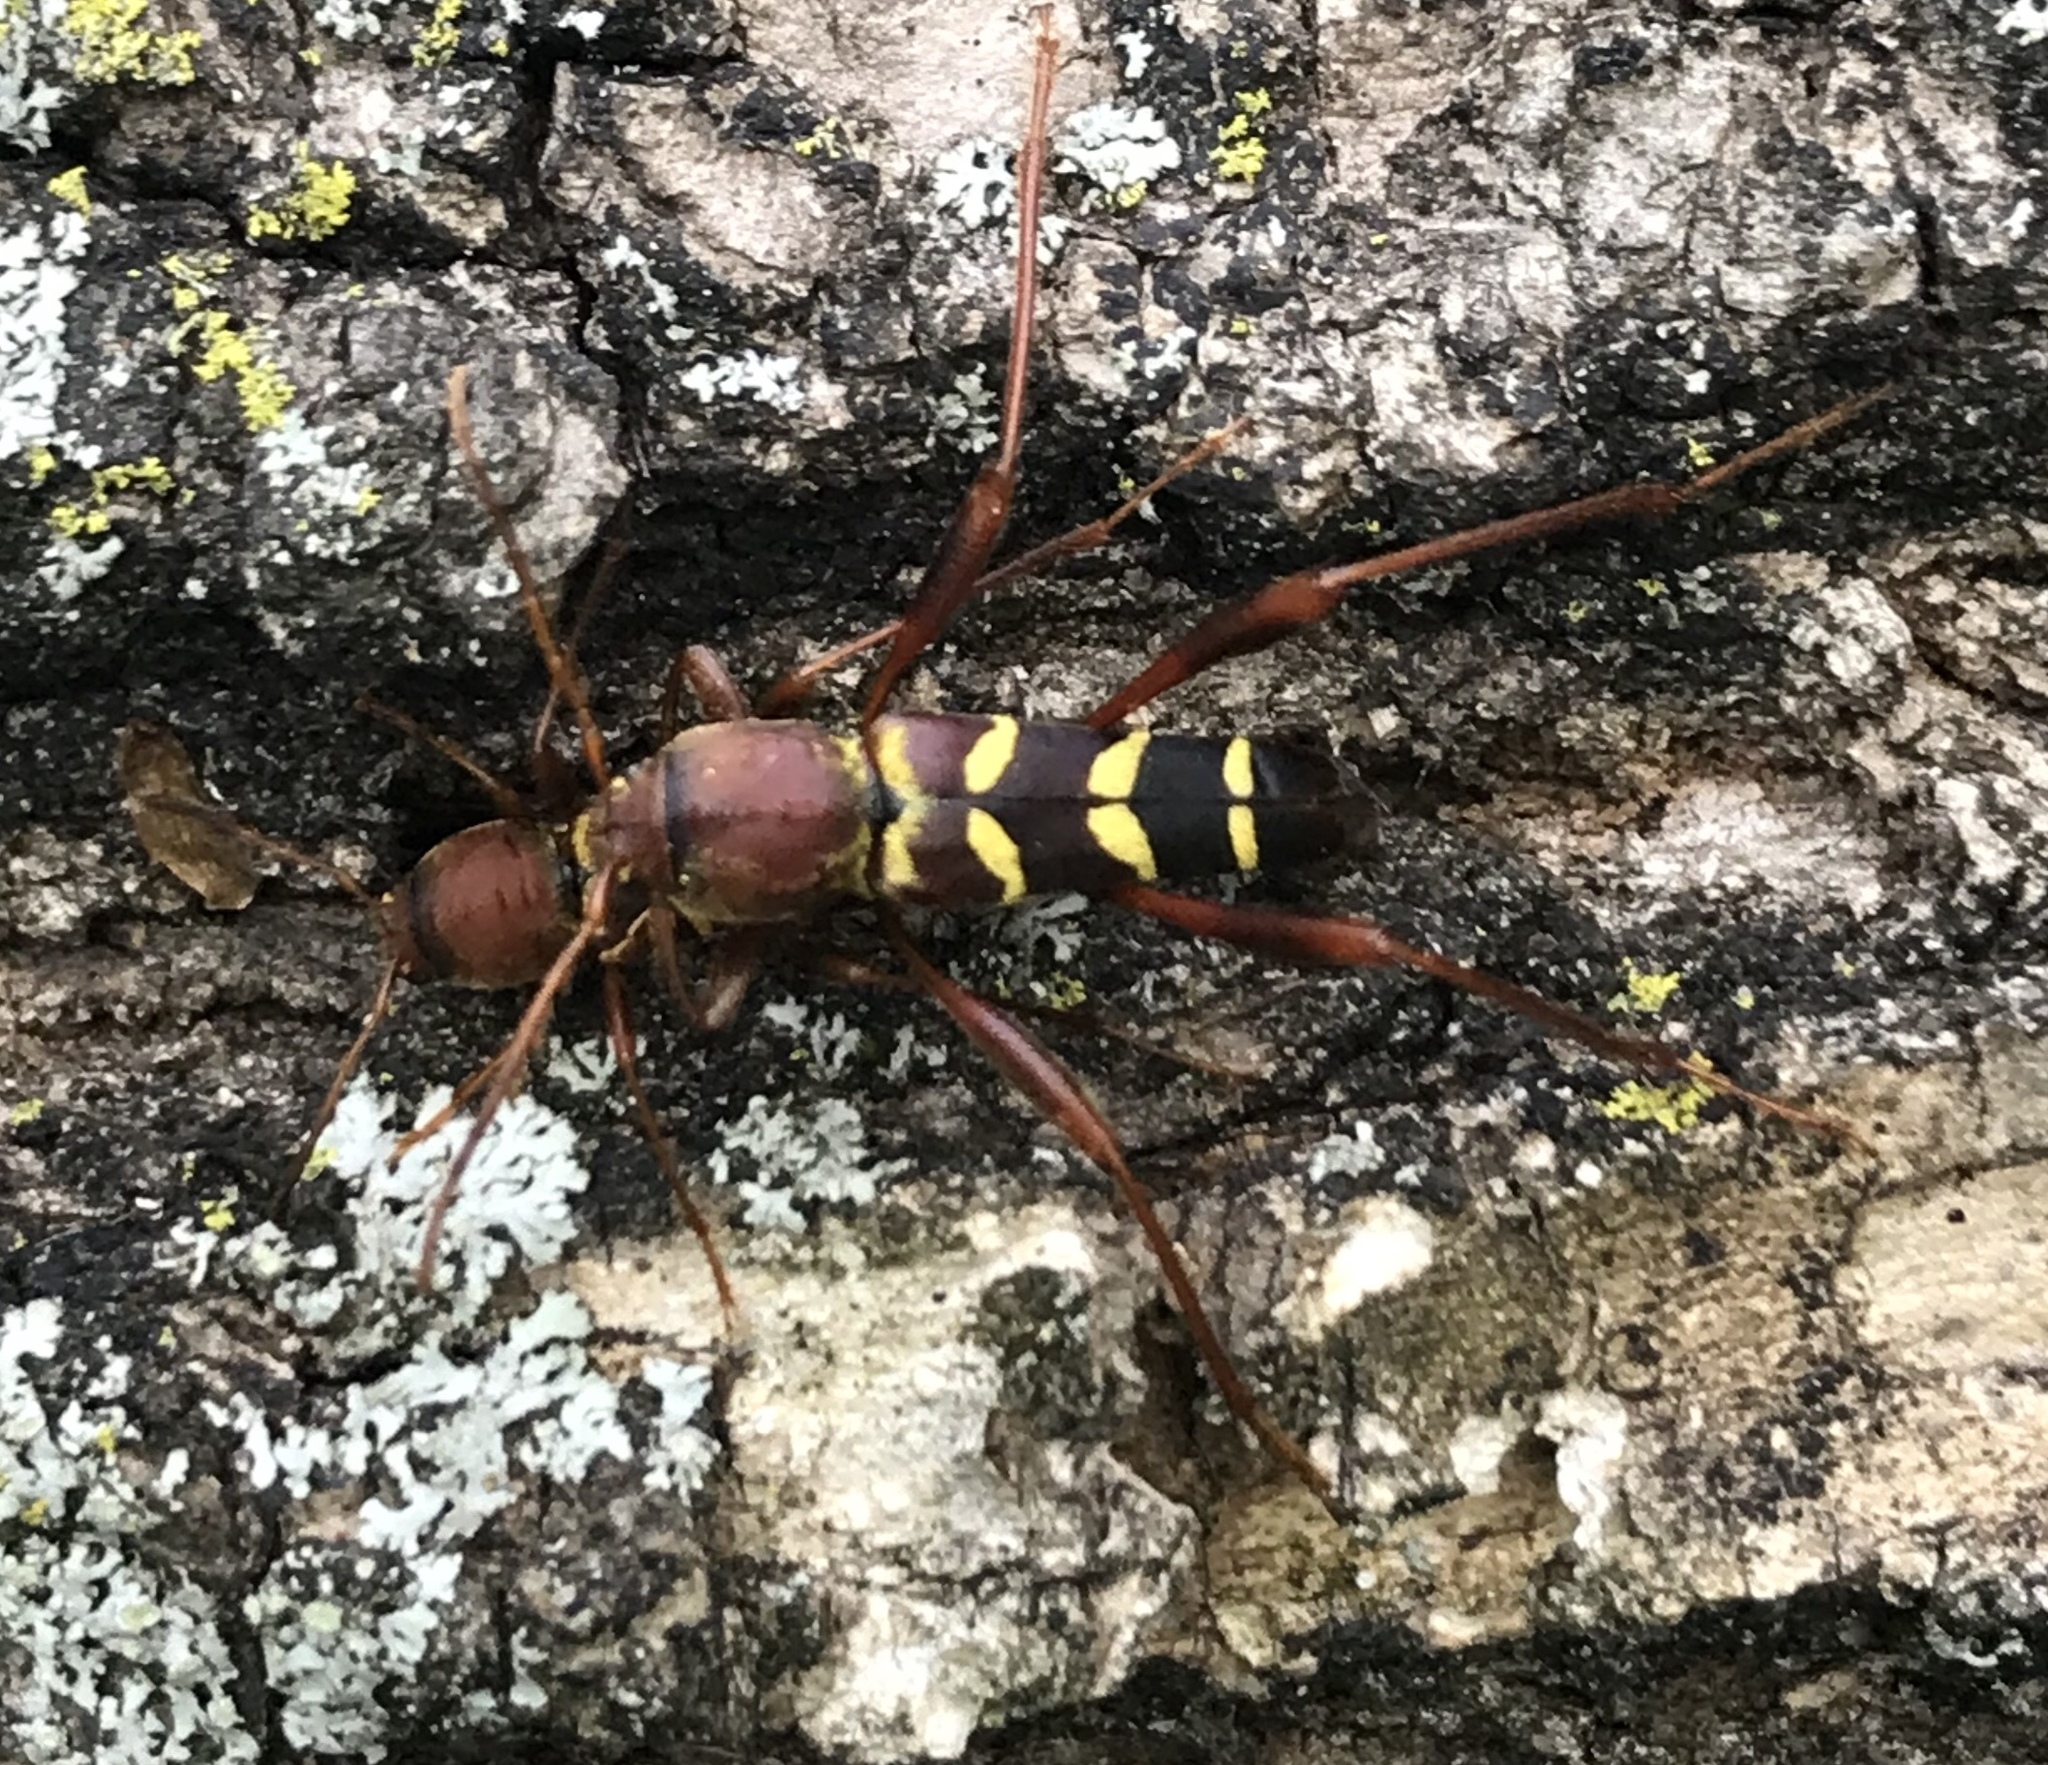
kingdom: Animalia
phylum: Arthropoda
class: Insecta
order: Coleoptera
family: Cerambycidae
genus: Neoclytus
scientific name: Neoclytus acuminatus
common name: Read-headed ash borer
